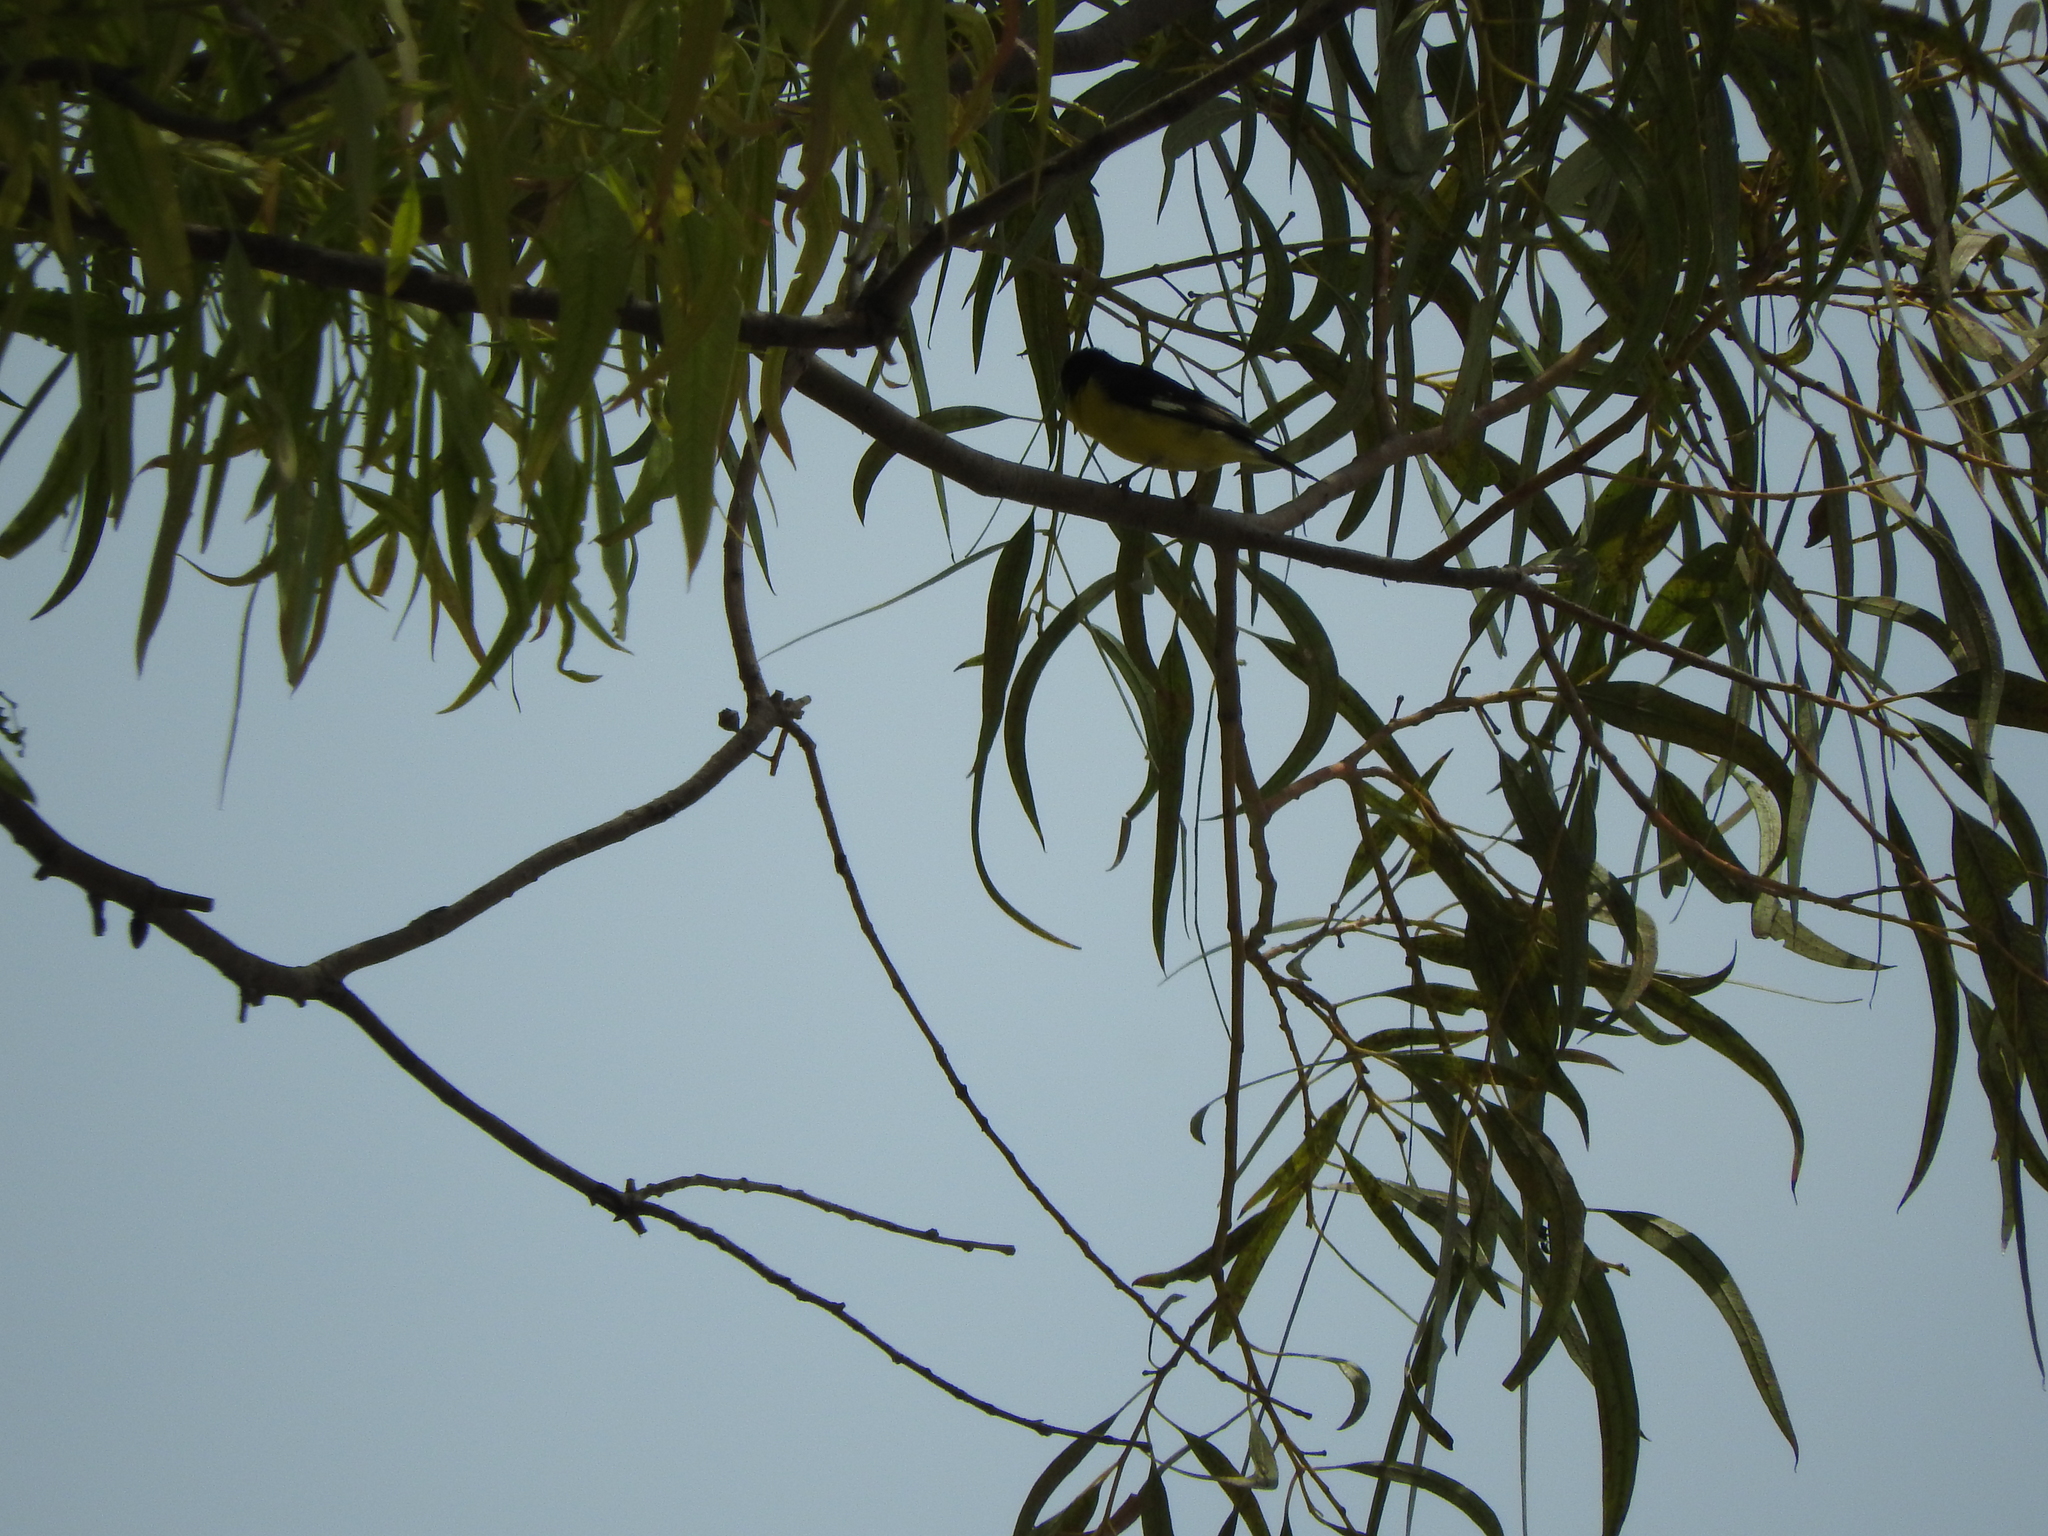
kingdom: Animalia
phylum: Chordata
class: Aves
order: Passeriformes
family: Fringillidae
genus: Spinus
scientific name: Spinus psaltria
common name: Lesser goldfinch
